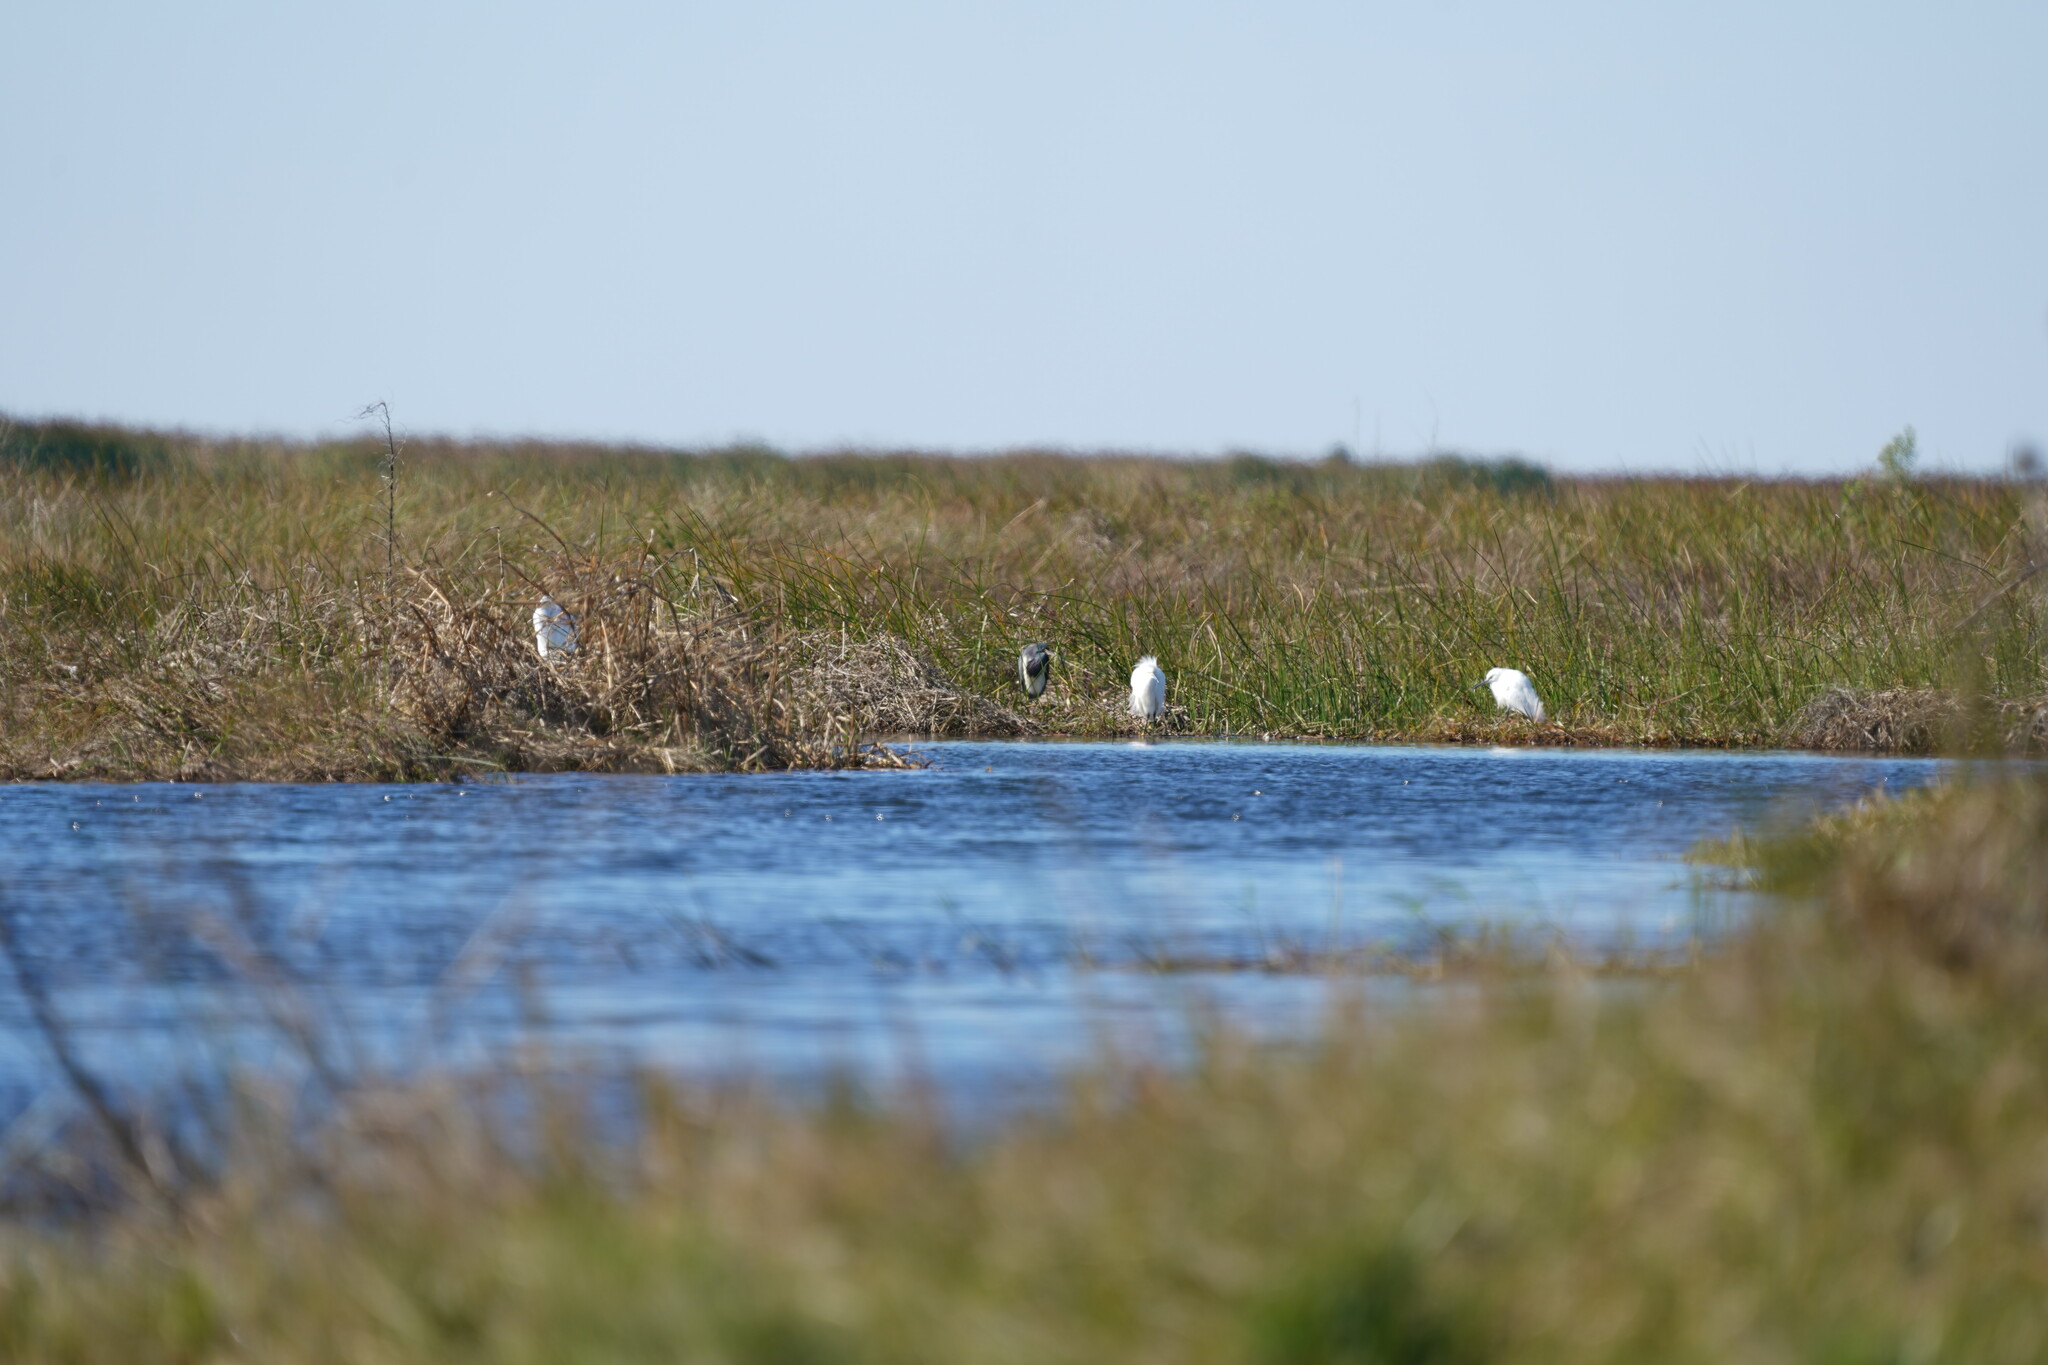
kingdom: Animalia
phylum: Chordata
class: Aves
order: Pelecaniformes
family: Ardeidae
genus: Egretta
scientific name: Egretta thula
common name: Snowy egret
